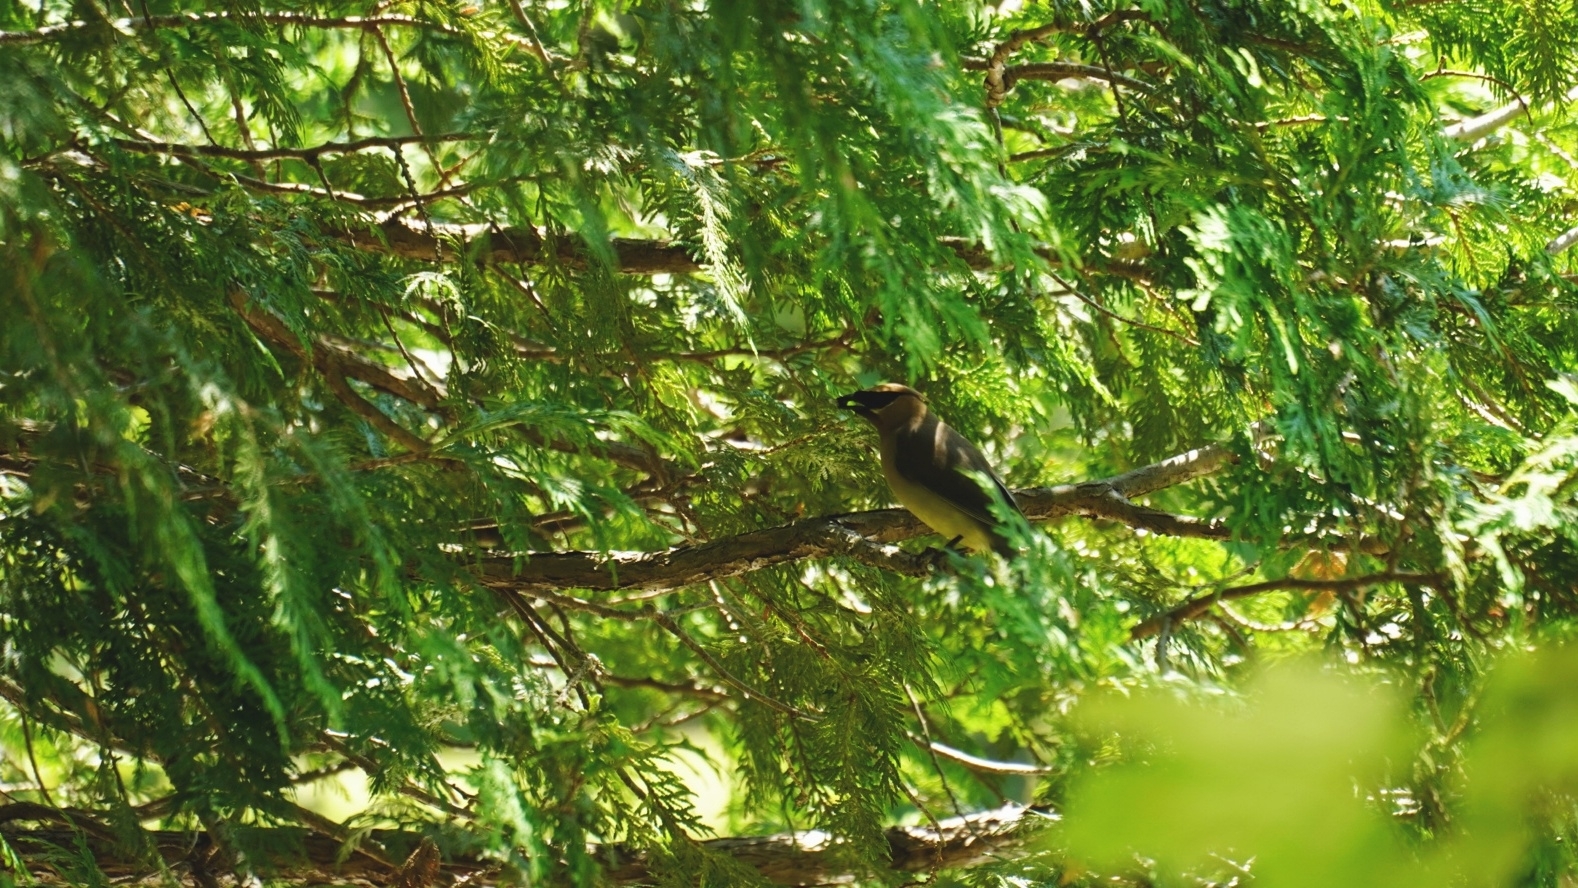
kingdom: Animalia
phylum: Chordata
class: Aves
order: Passeriformes
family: Bombycillidae
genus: Bombycilla
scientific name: Bombycilla cedrorum
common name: Cedar waxwing
